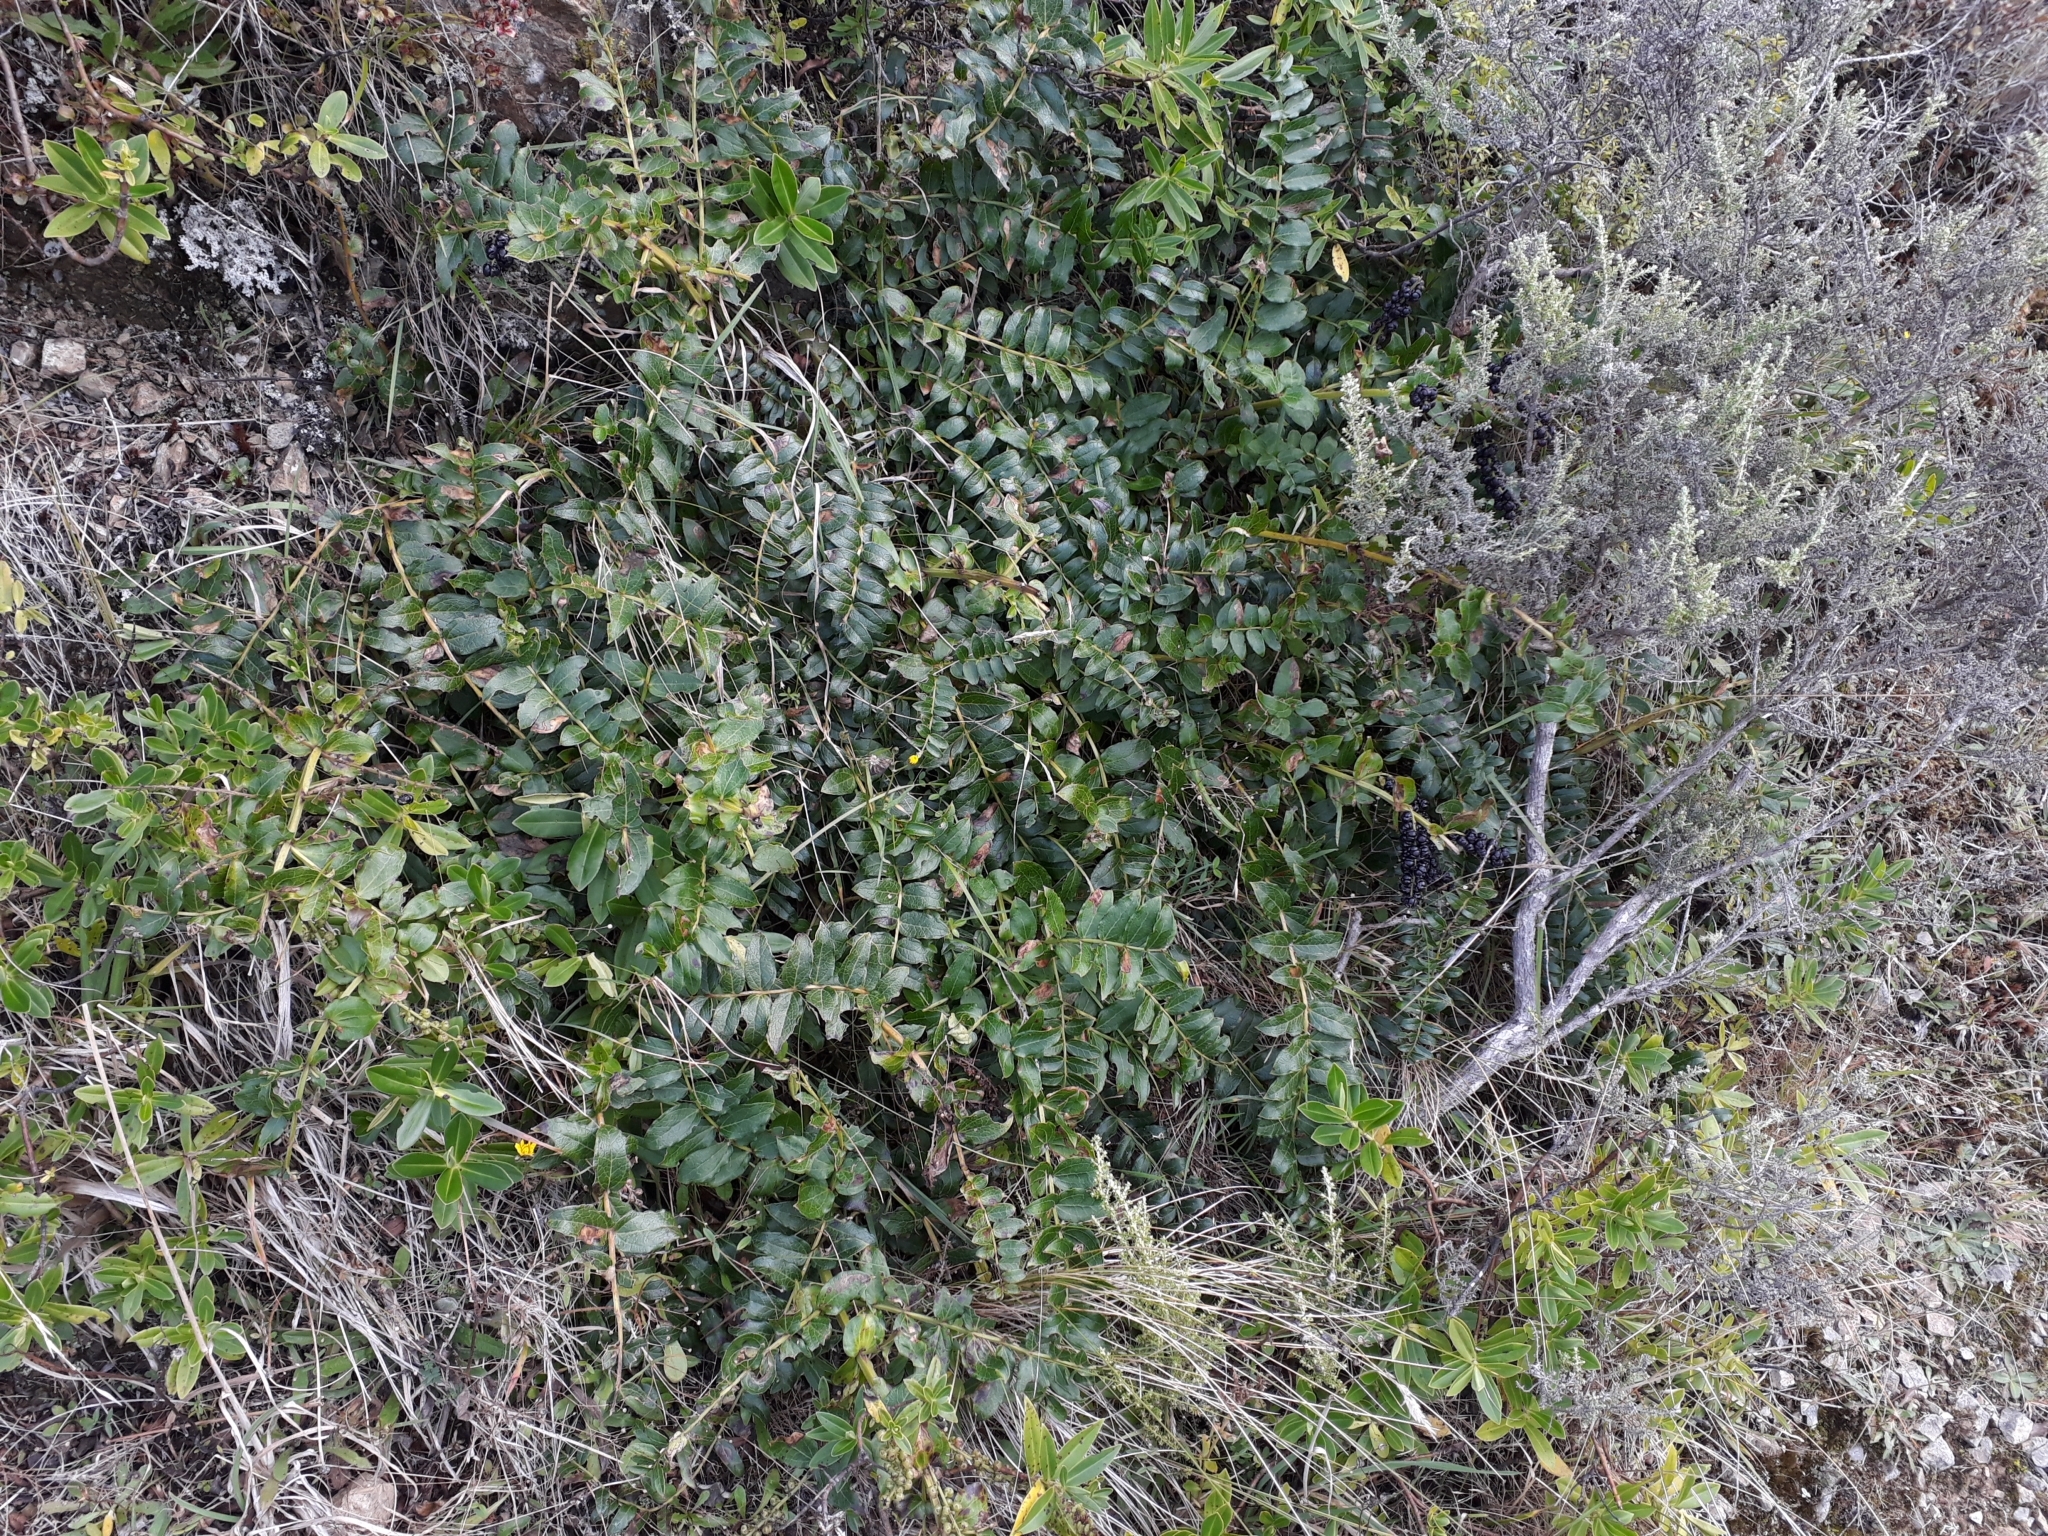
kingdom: Plantae
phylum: Tracheophyta
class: Magnoliopsida
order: Cucurbitales
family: Coriariaceae
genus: Coriaria
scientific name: Coriaria sarmentosa
